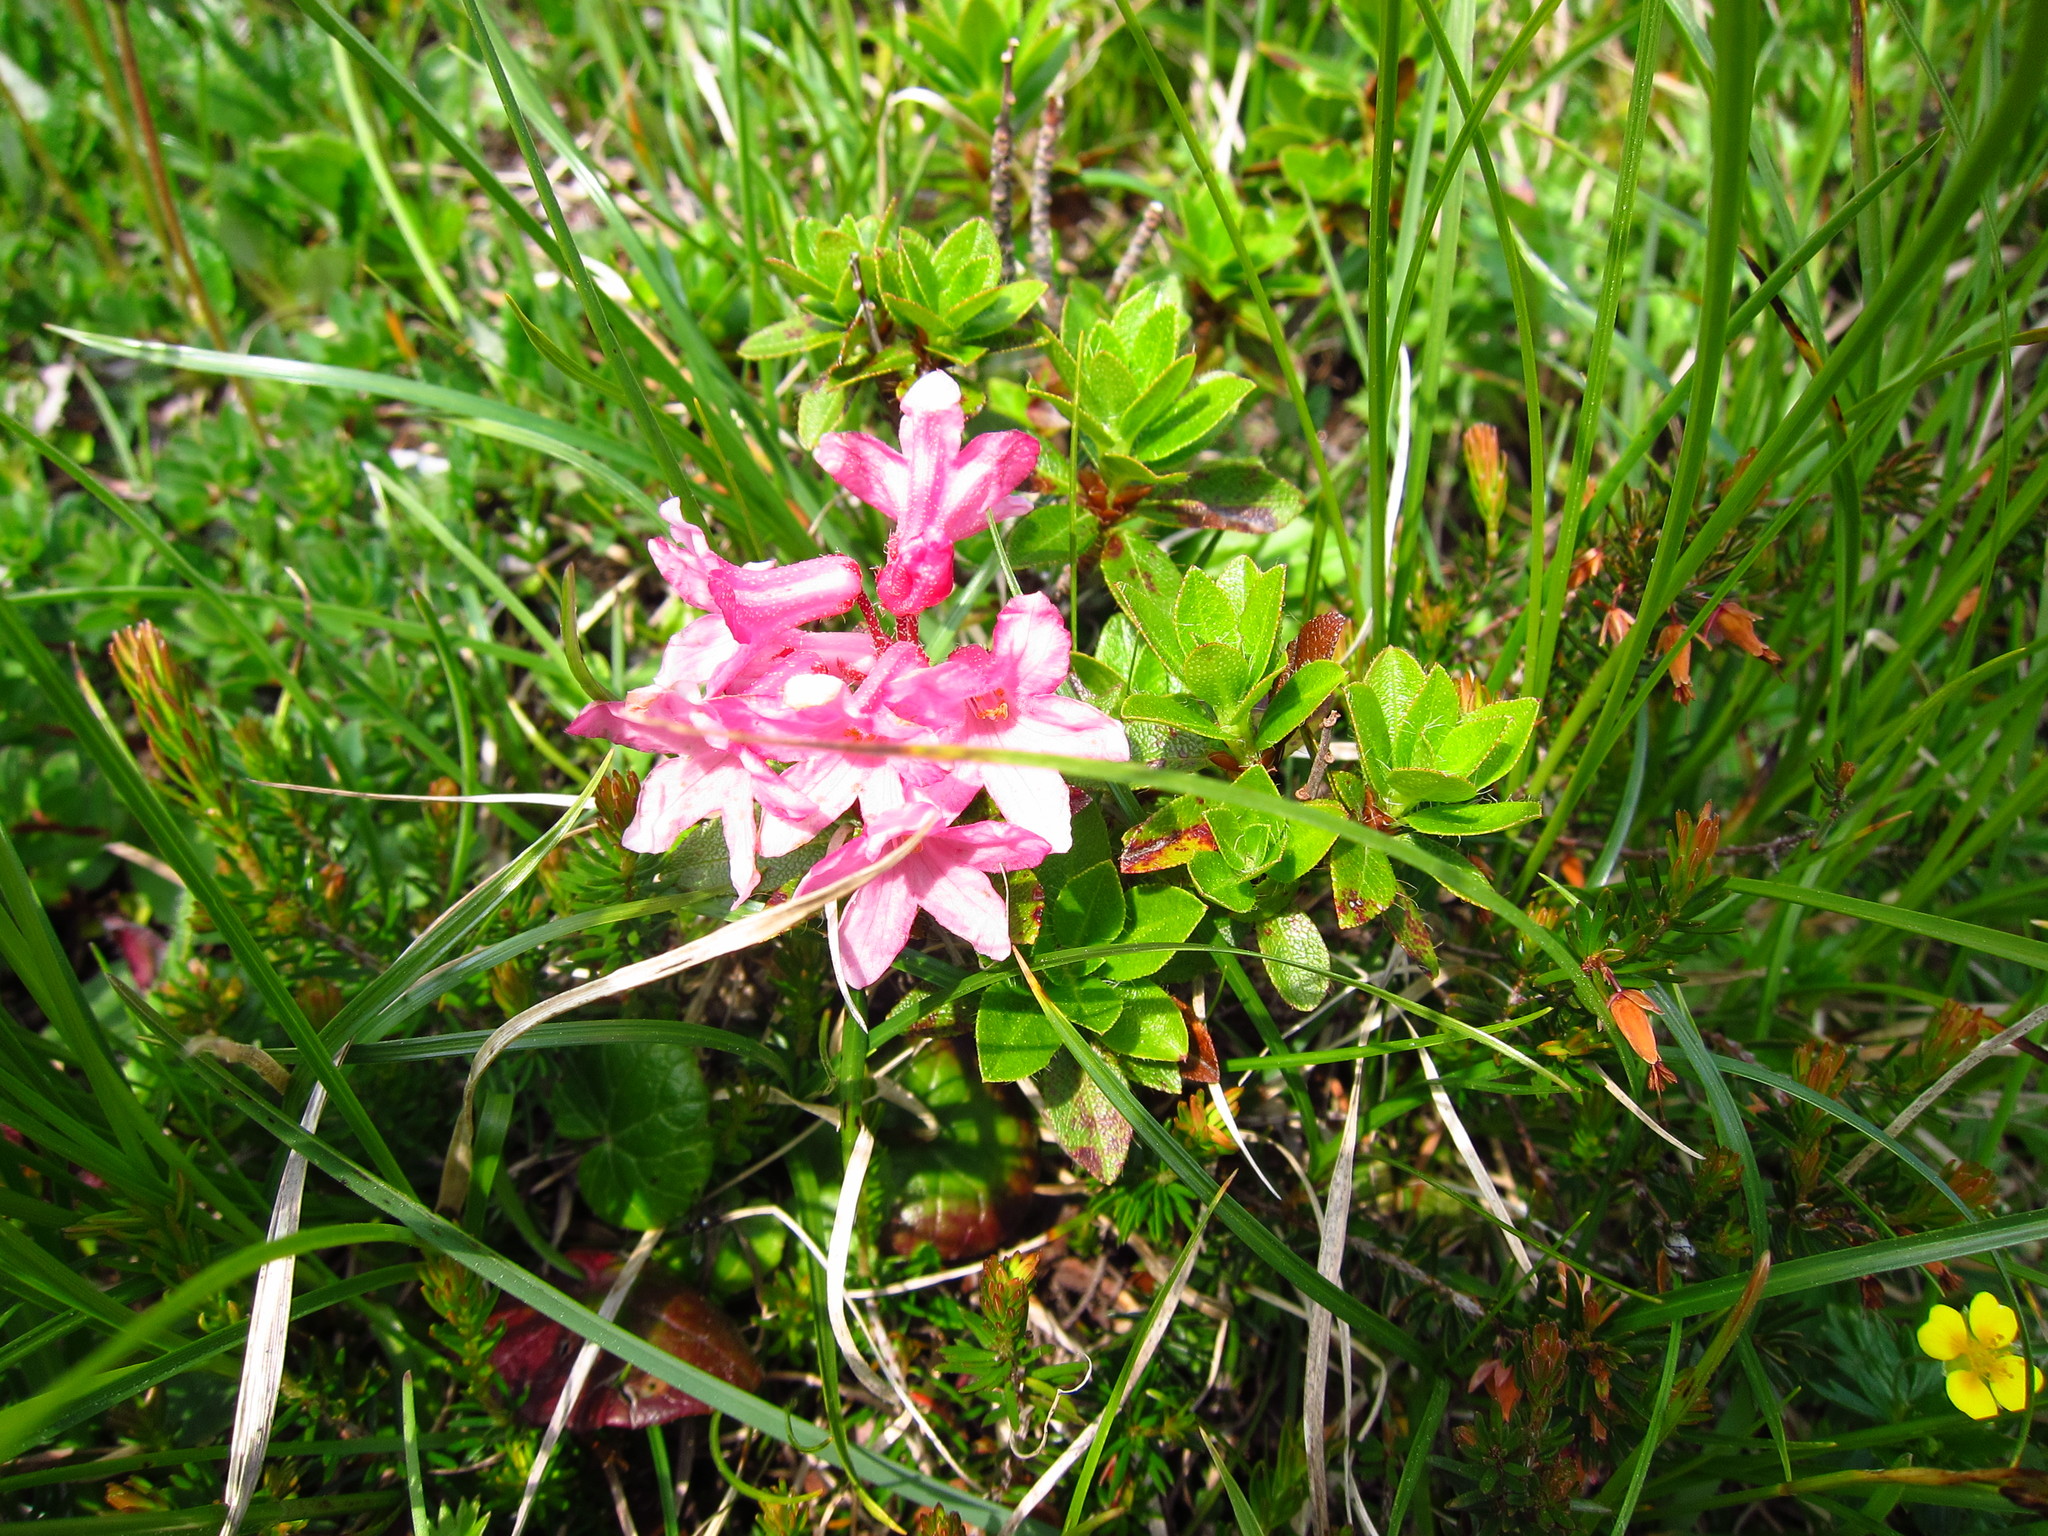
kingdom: Plantae
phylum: Tracheophyta
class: Magnoliopsida
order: Ericales
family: Ericaceae
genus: Rhododendron
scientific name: Rhododendron hirsutum
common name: Hairy alpenrose
